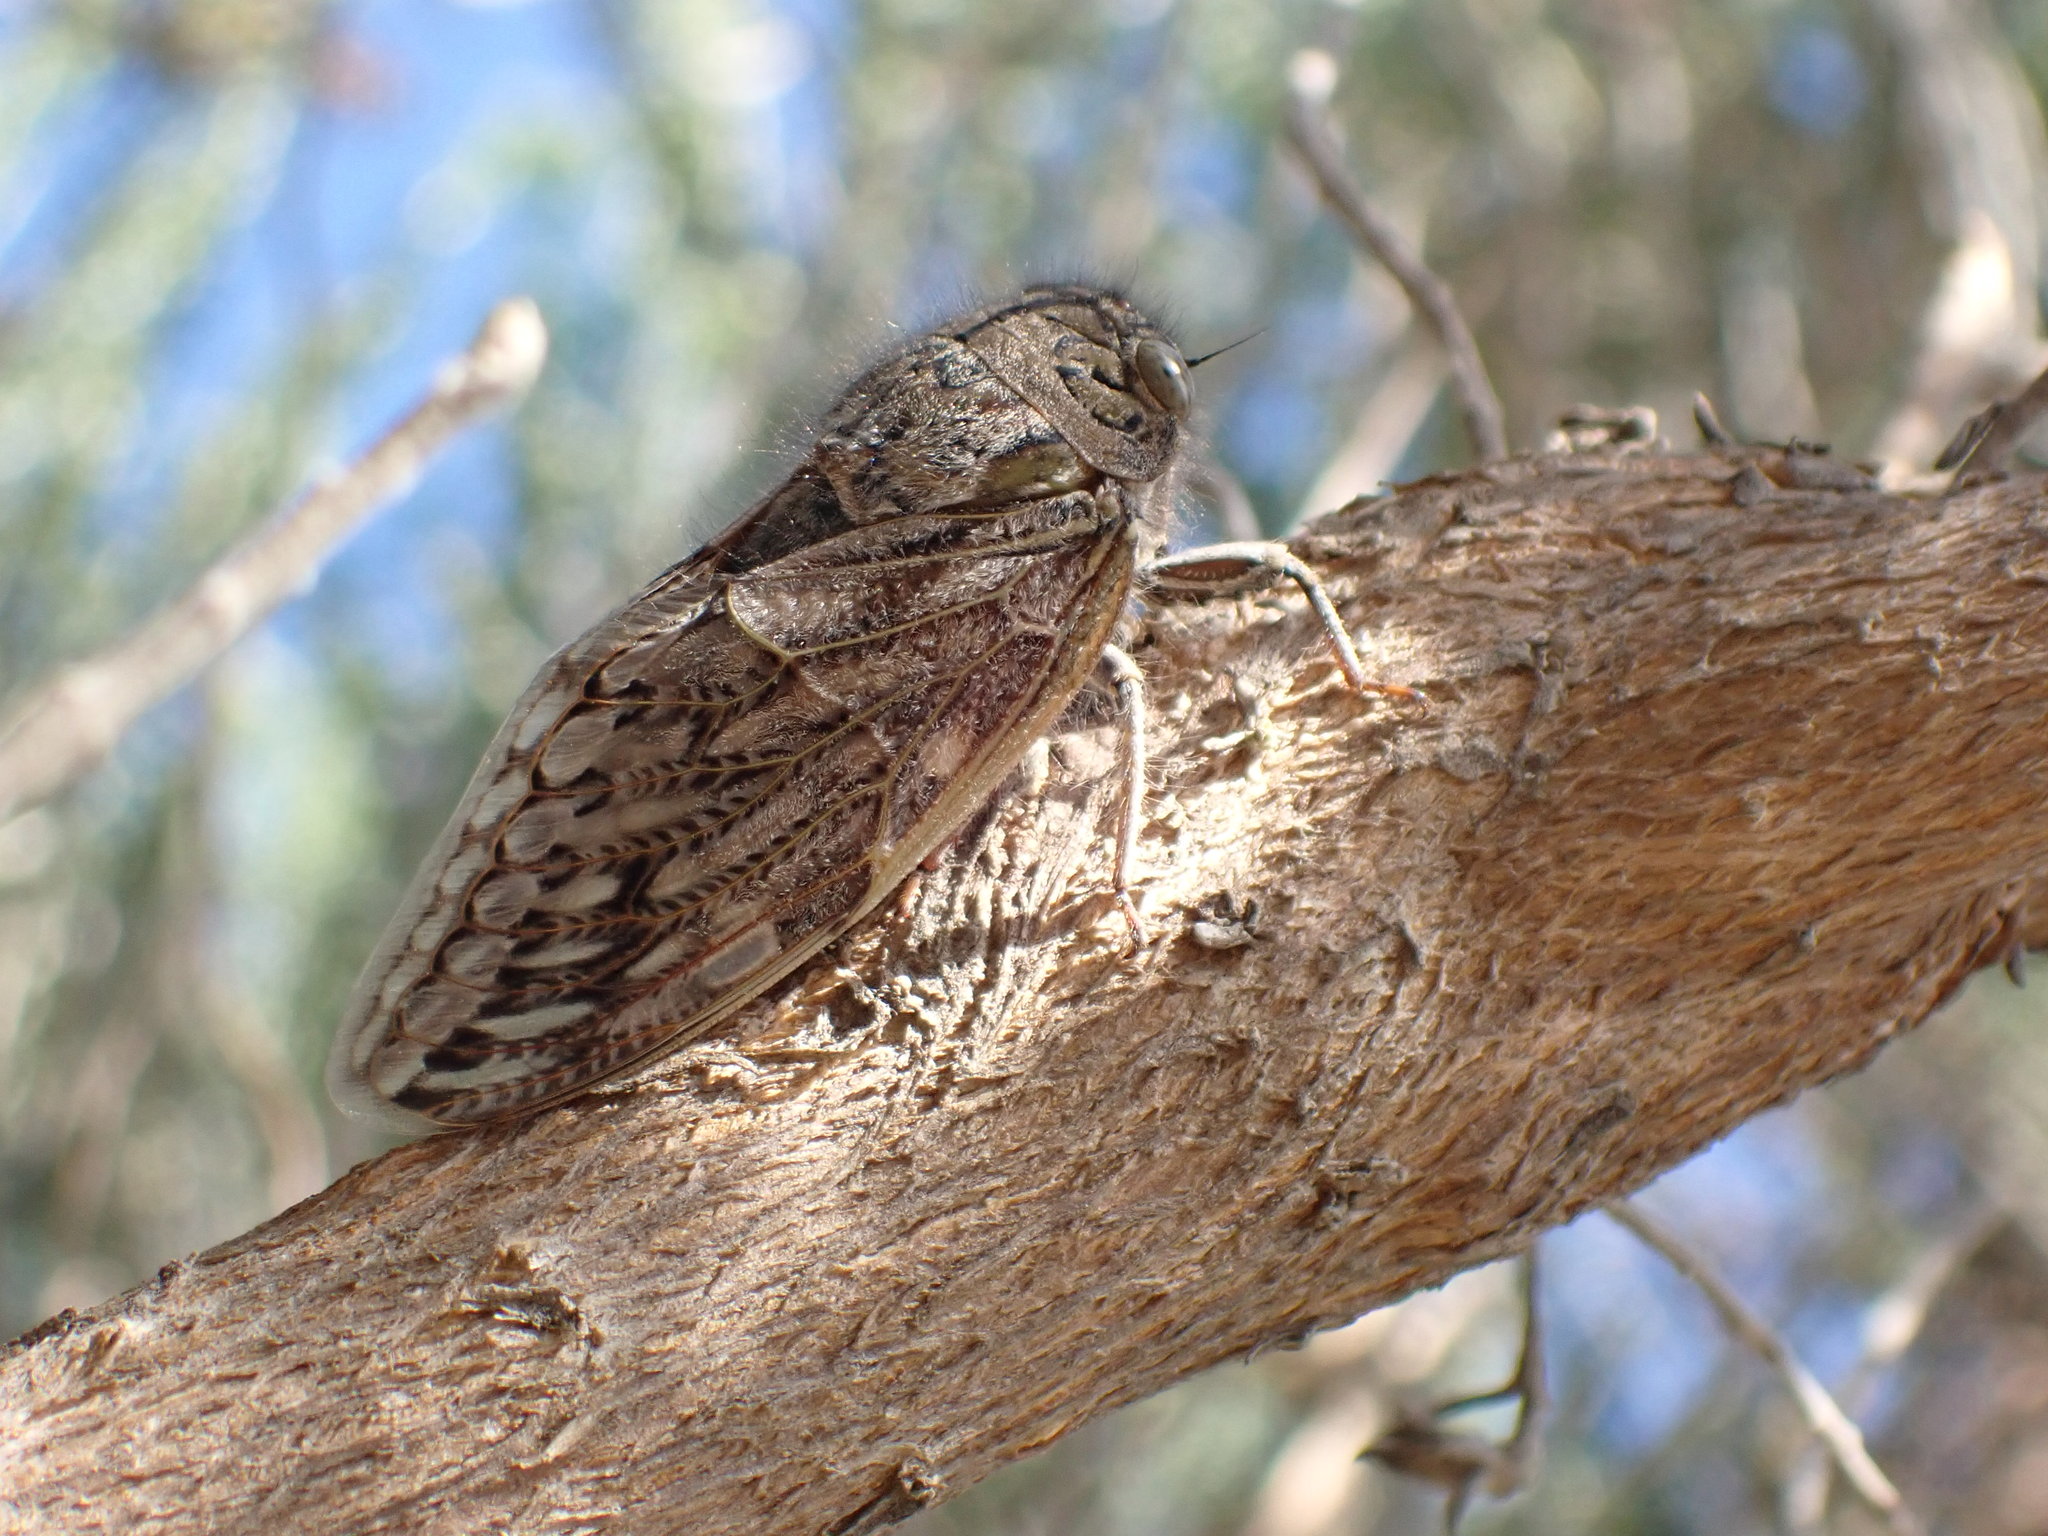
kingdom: Animalia
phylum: Arthropoda
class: Insecta
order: Hemiptera
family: Cicadidae
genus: Platypleura
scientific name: Platypleura stridula
